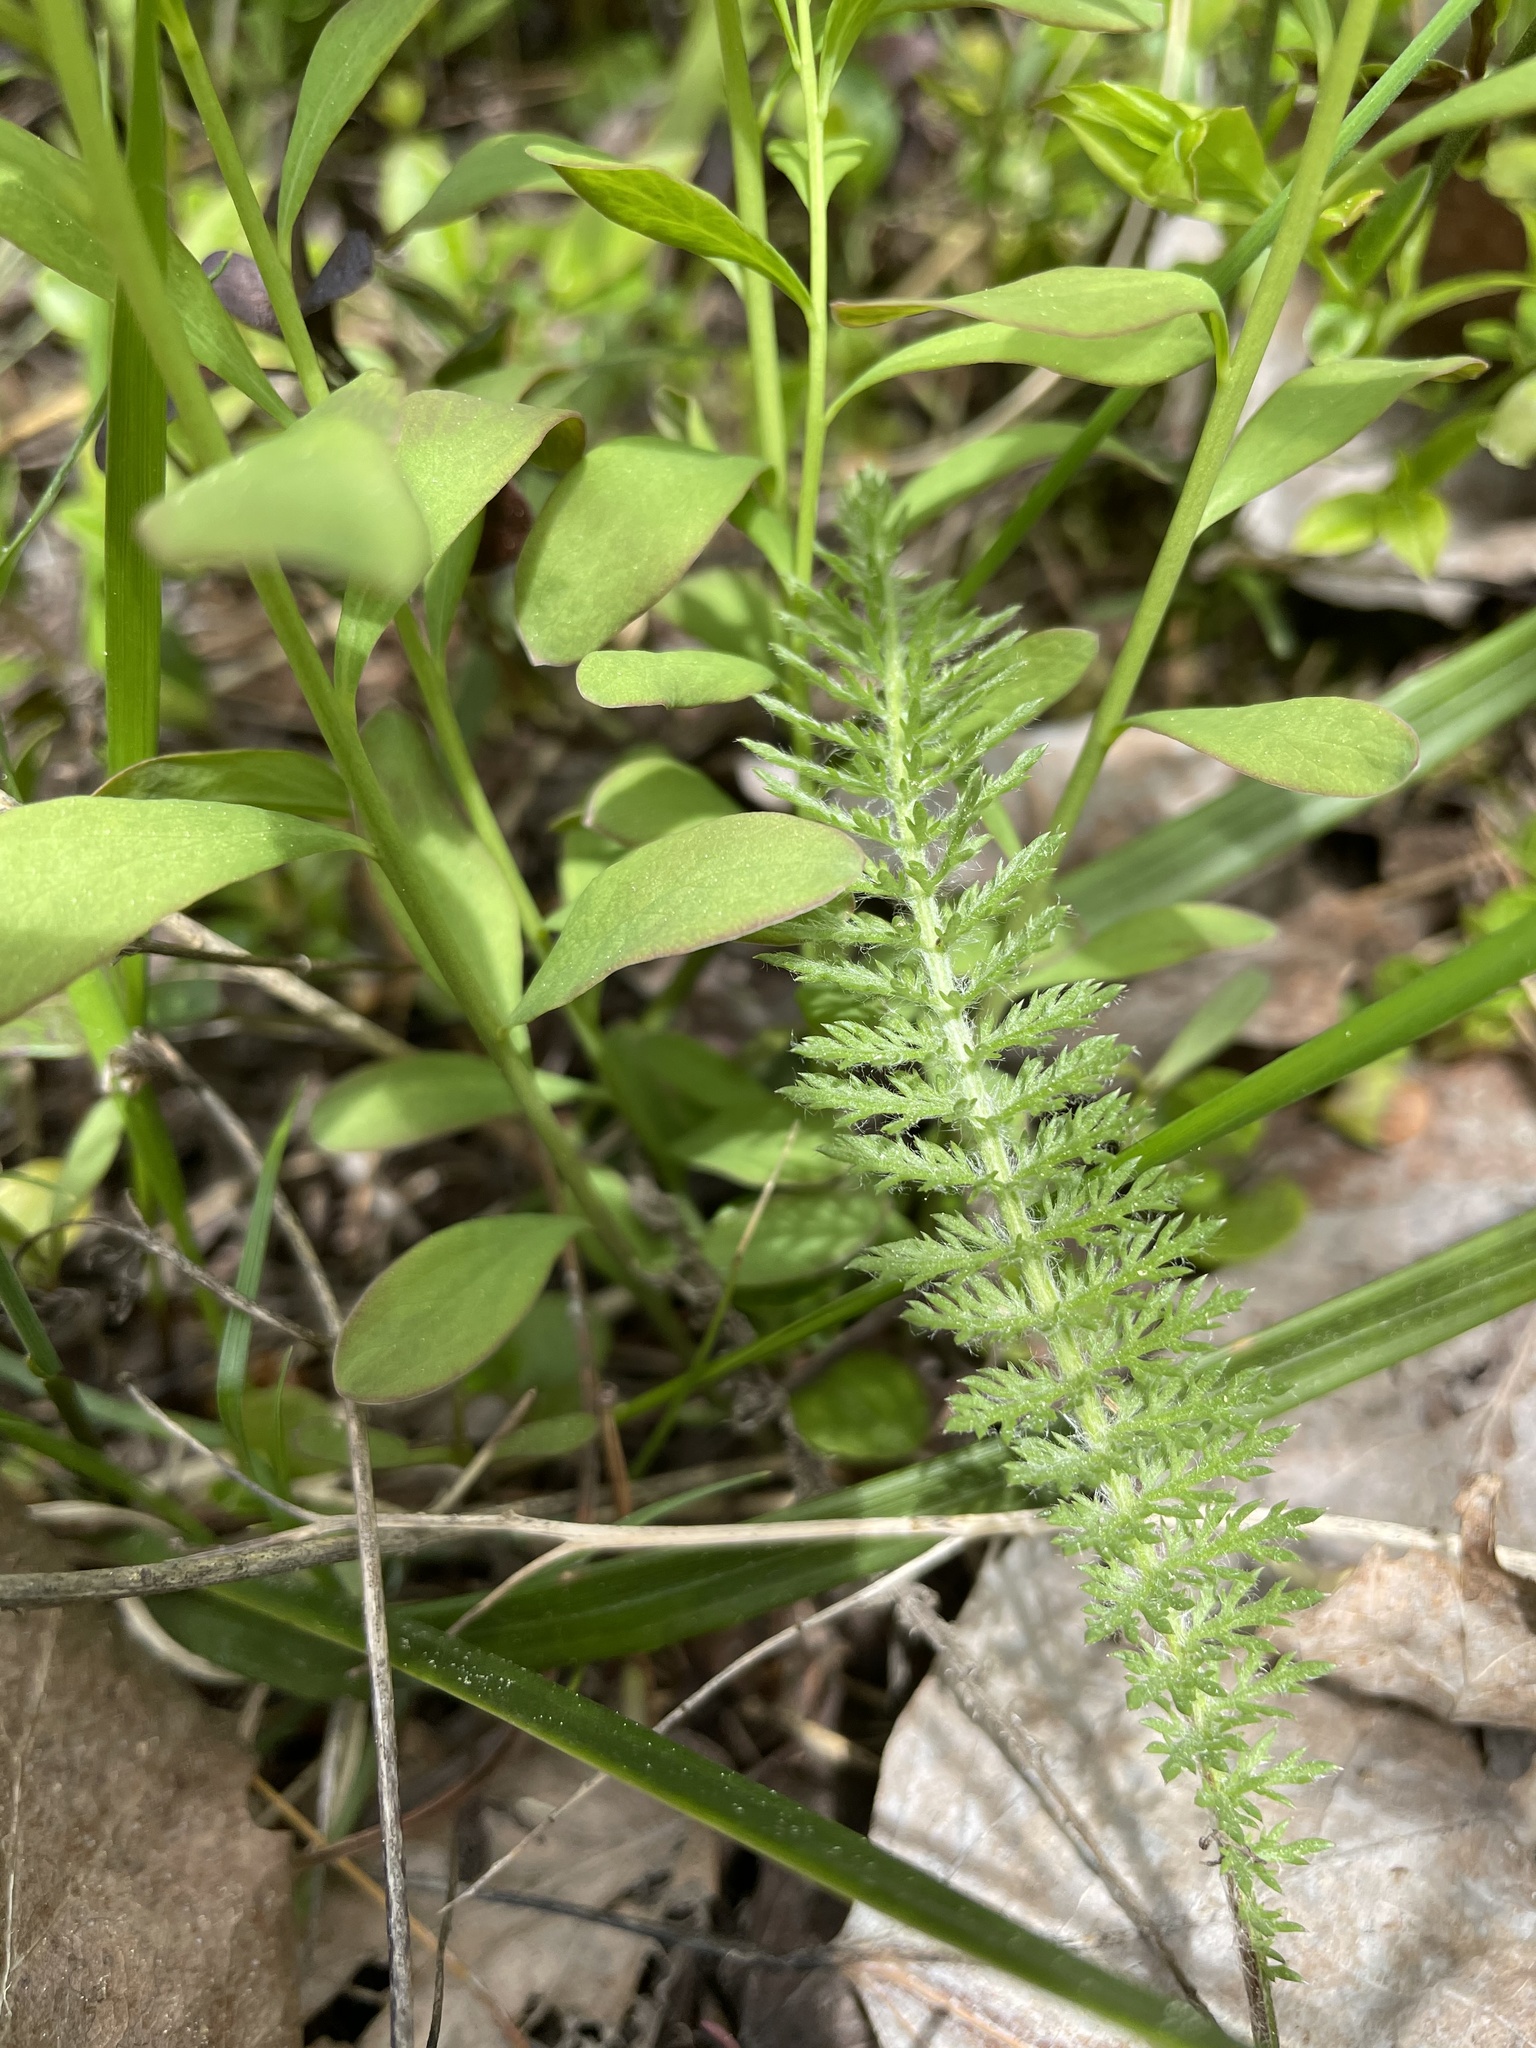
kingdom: Plantae
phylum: Tracheophyta
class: Magnoliopsida
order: Asterales
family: Asteraceae
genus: Achillea
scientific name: Achillea millefolium
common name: Yarrow
